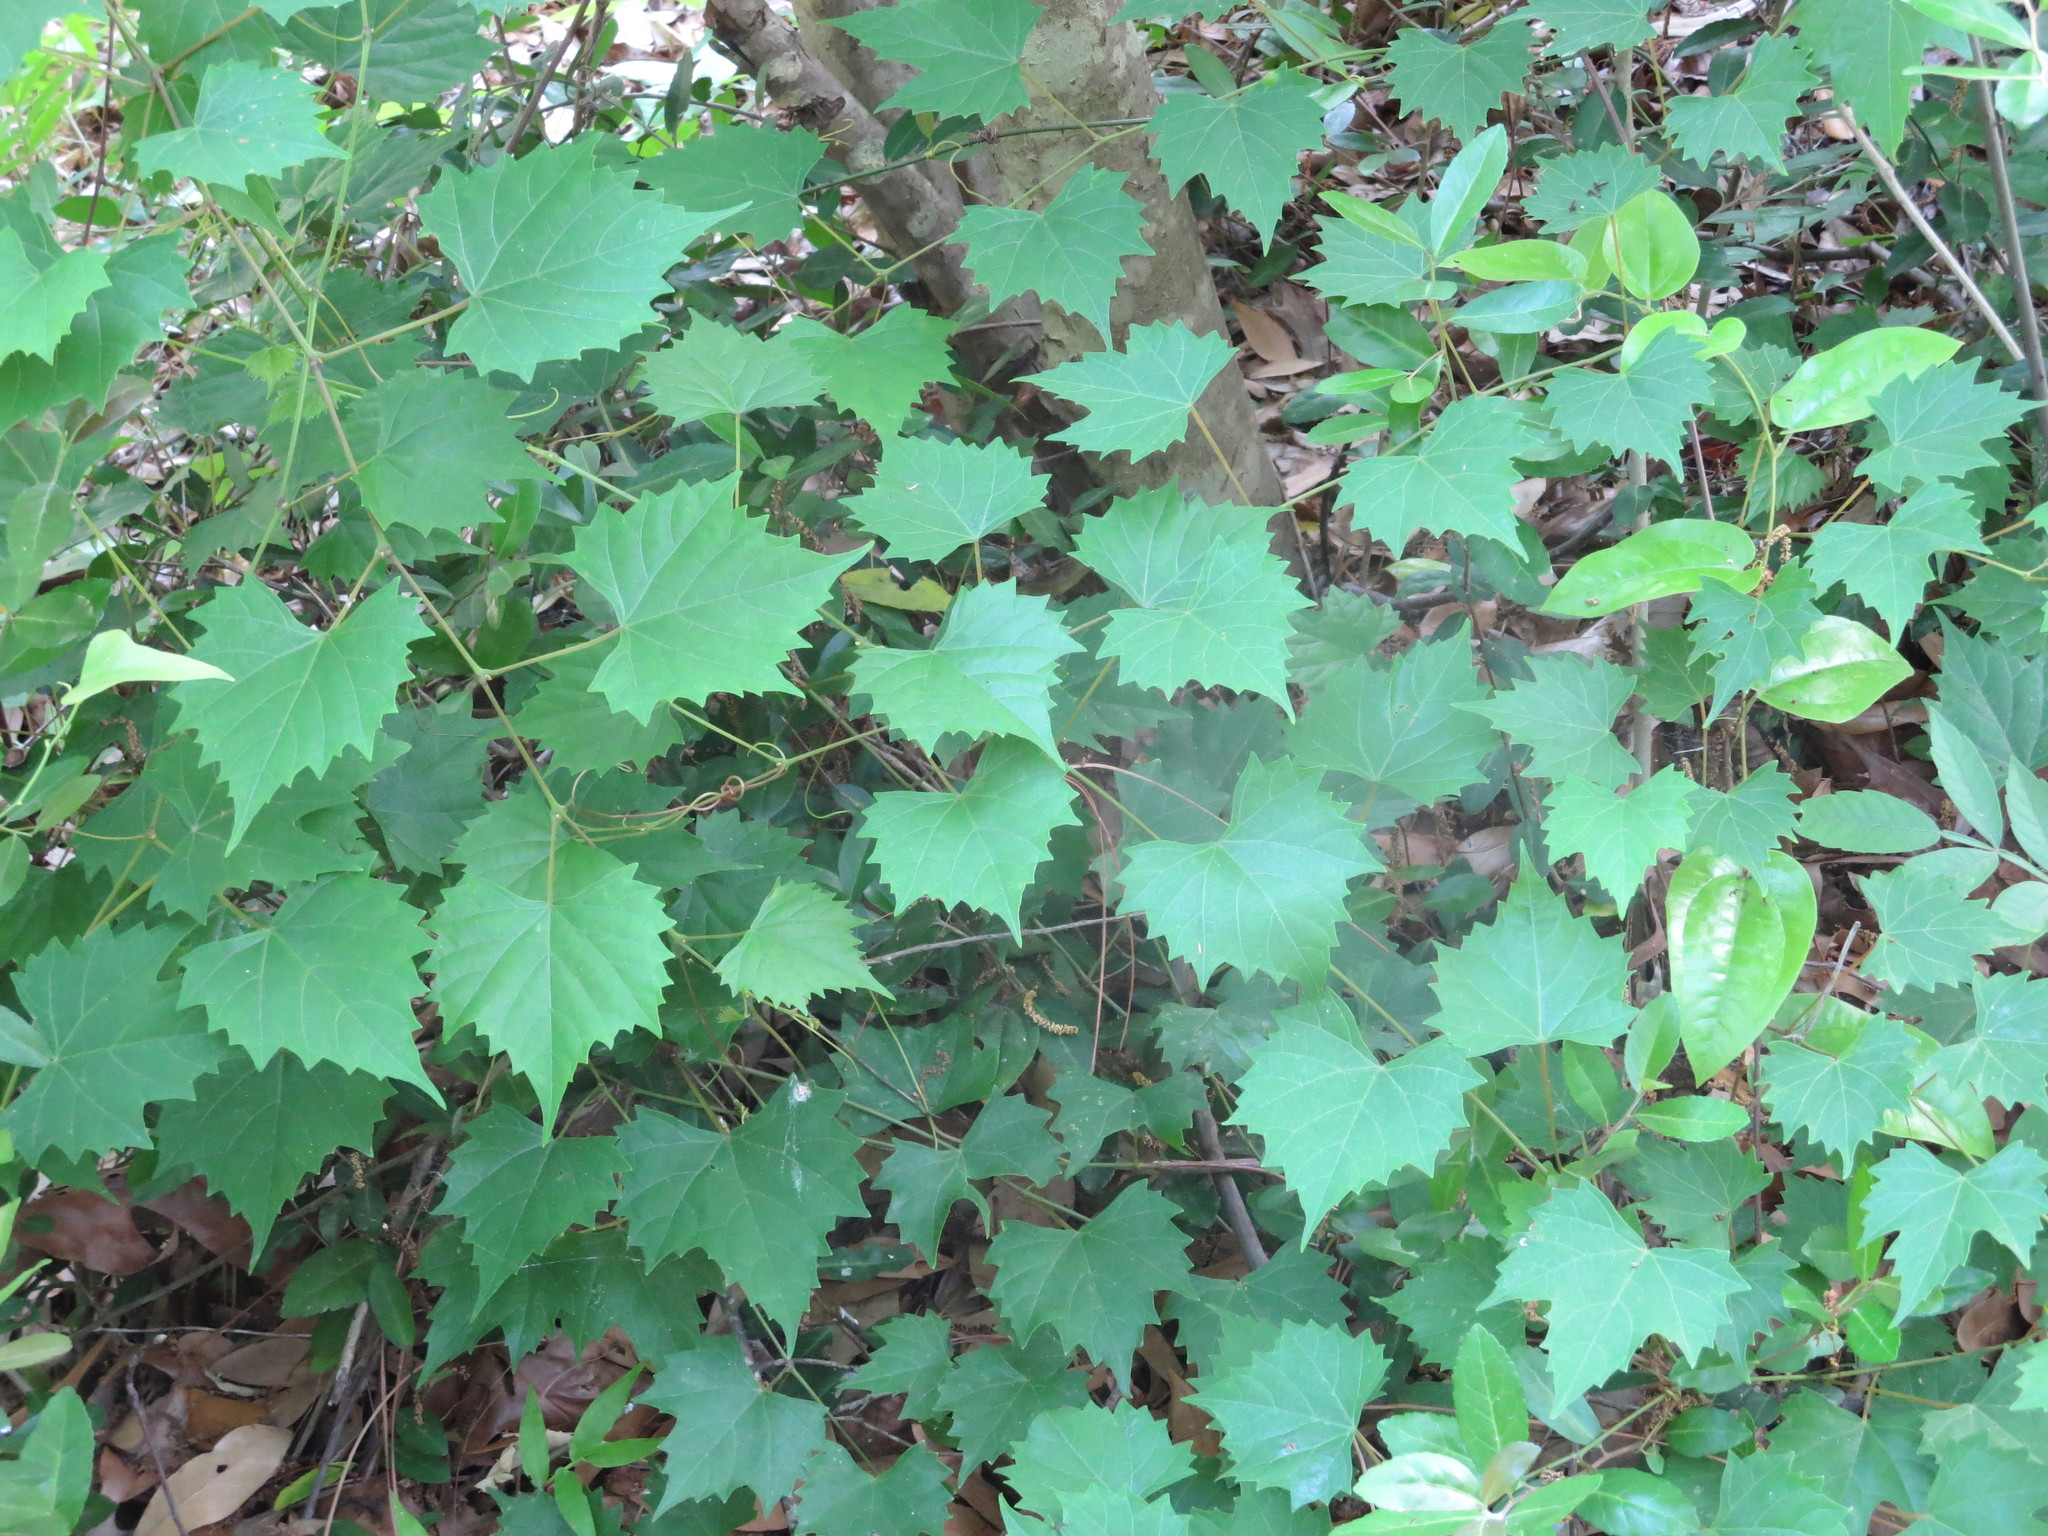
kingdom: Plantae
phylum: Tracheophyta
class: Magnoliopsida
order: Vitales
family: Vitaceae
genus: Vitis
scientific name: Vitis rotundifolia
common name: Muscadine grape
